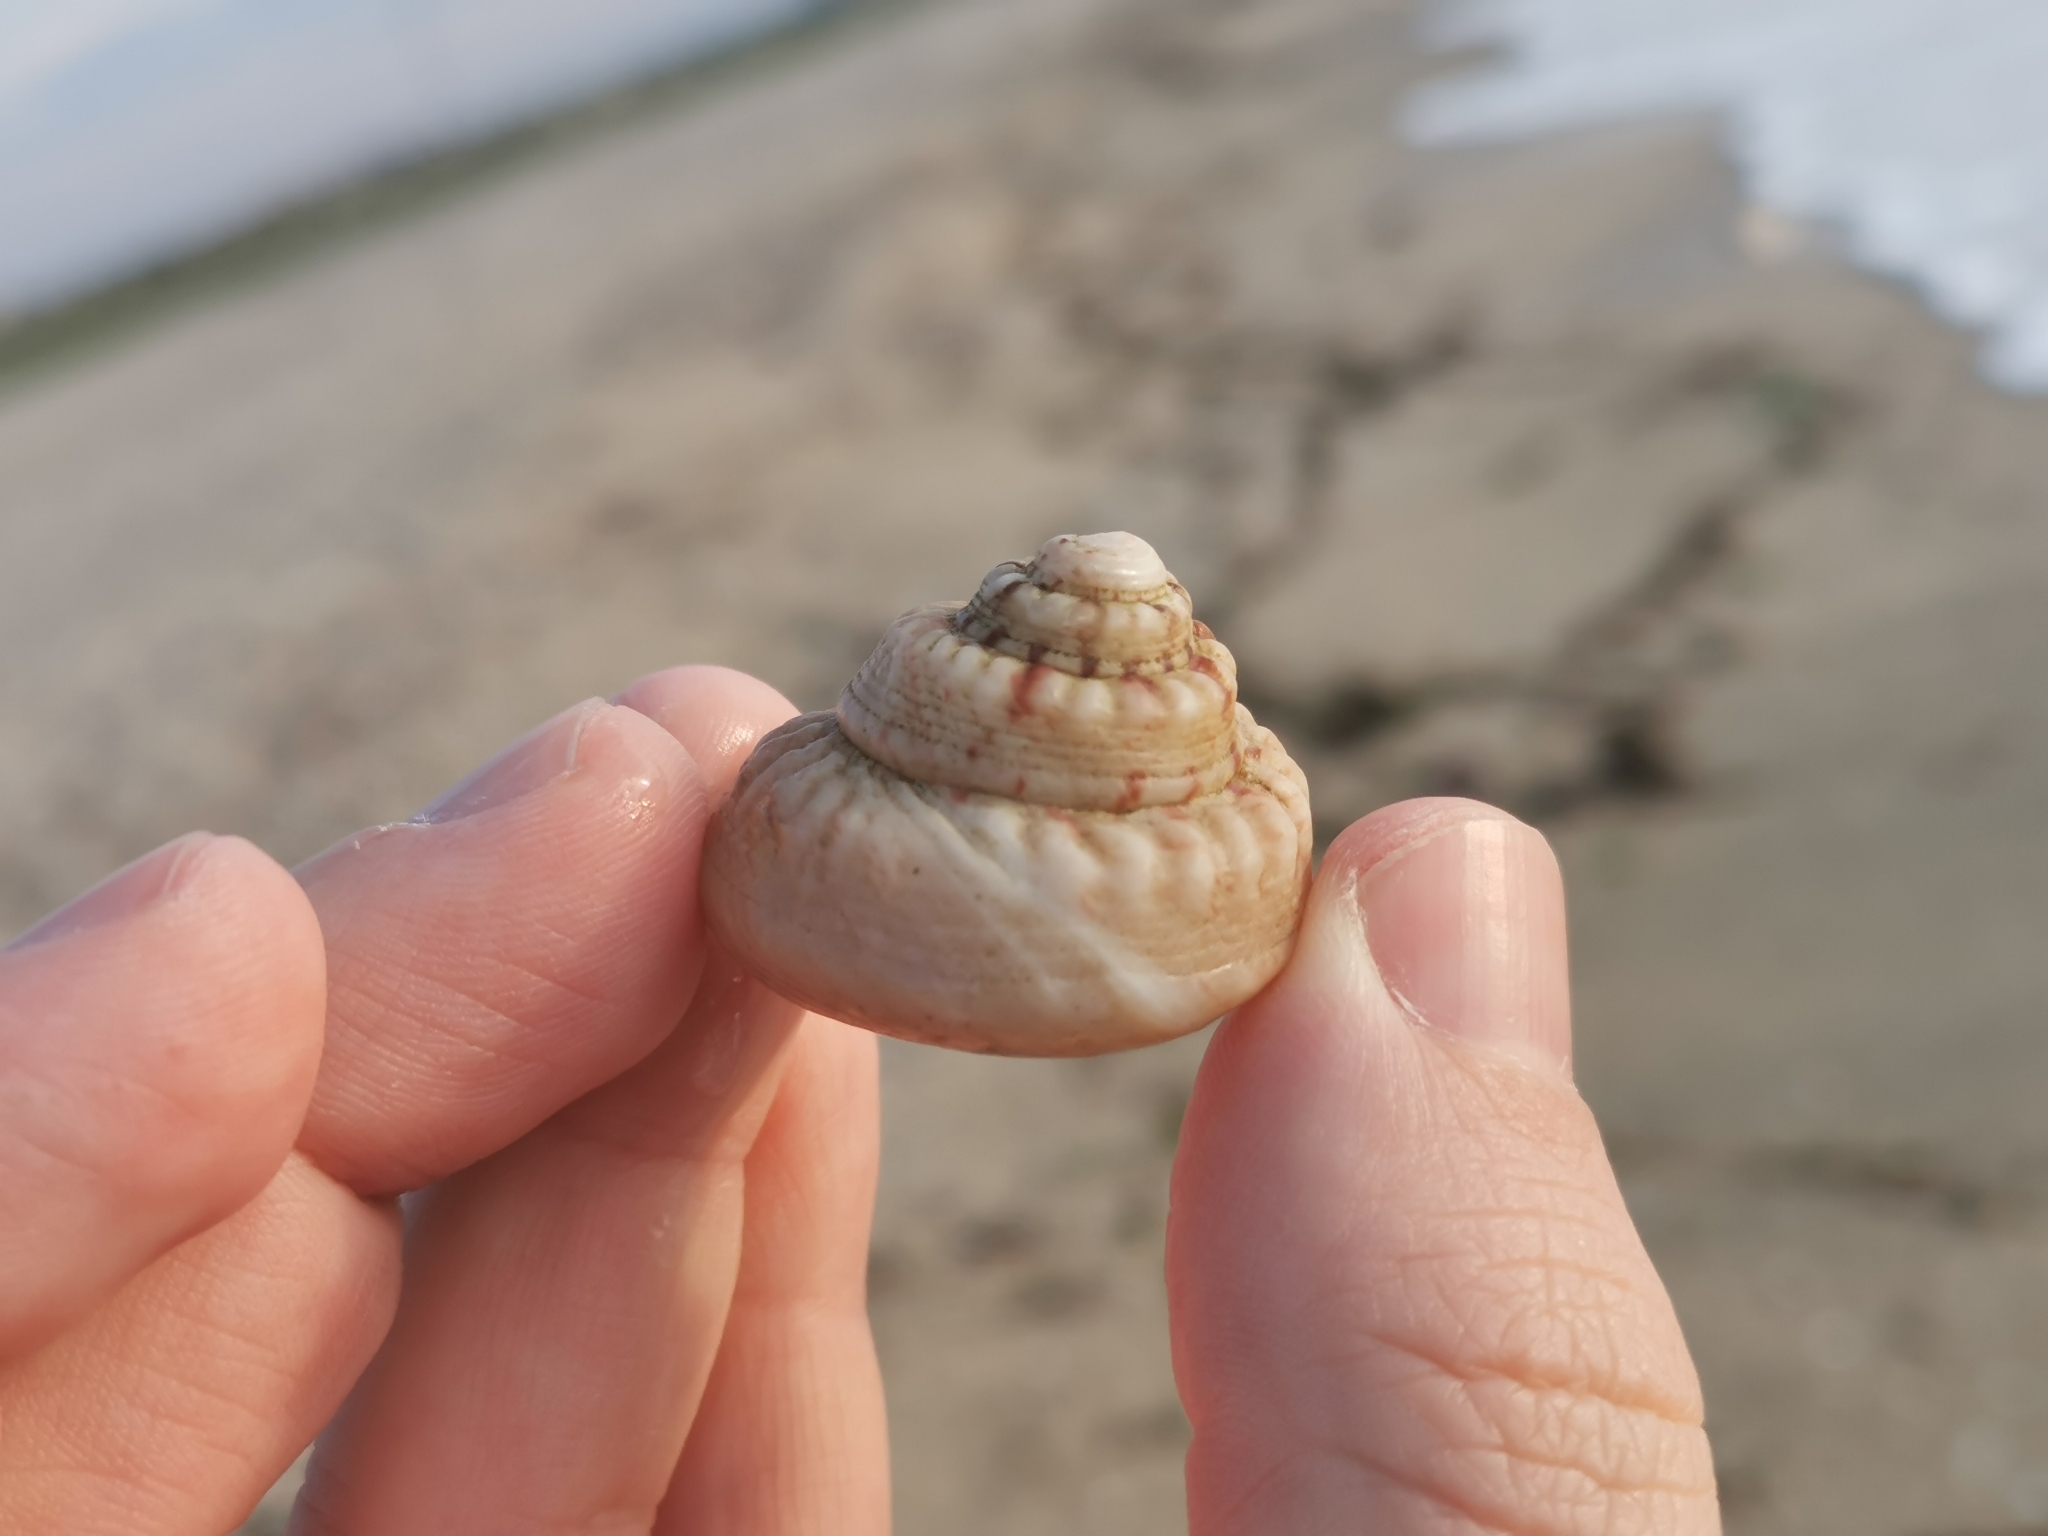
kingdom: Animalia
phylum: Mollusca
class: Gastropoda
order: Trochida
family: Trochidae
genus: Gibbula
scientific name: Gibbula magus
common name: Turban top shell
